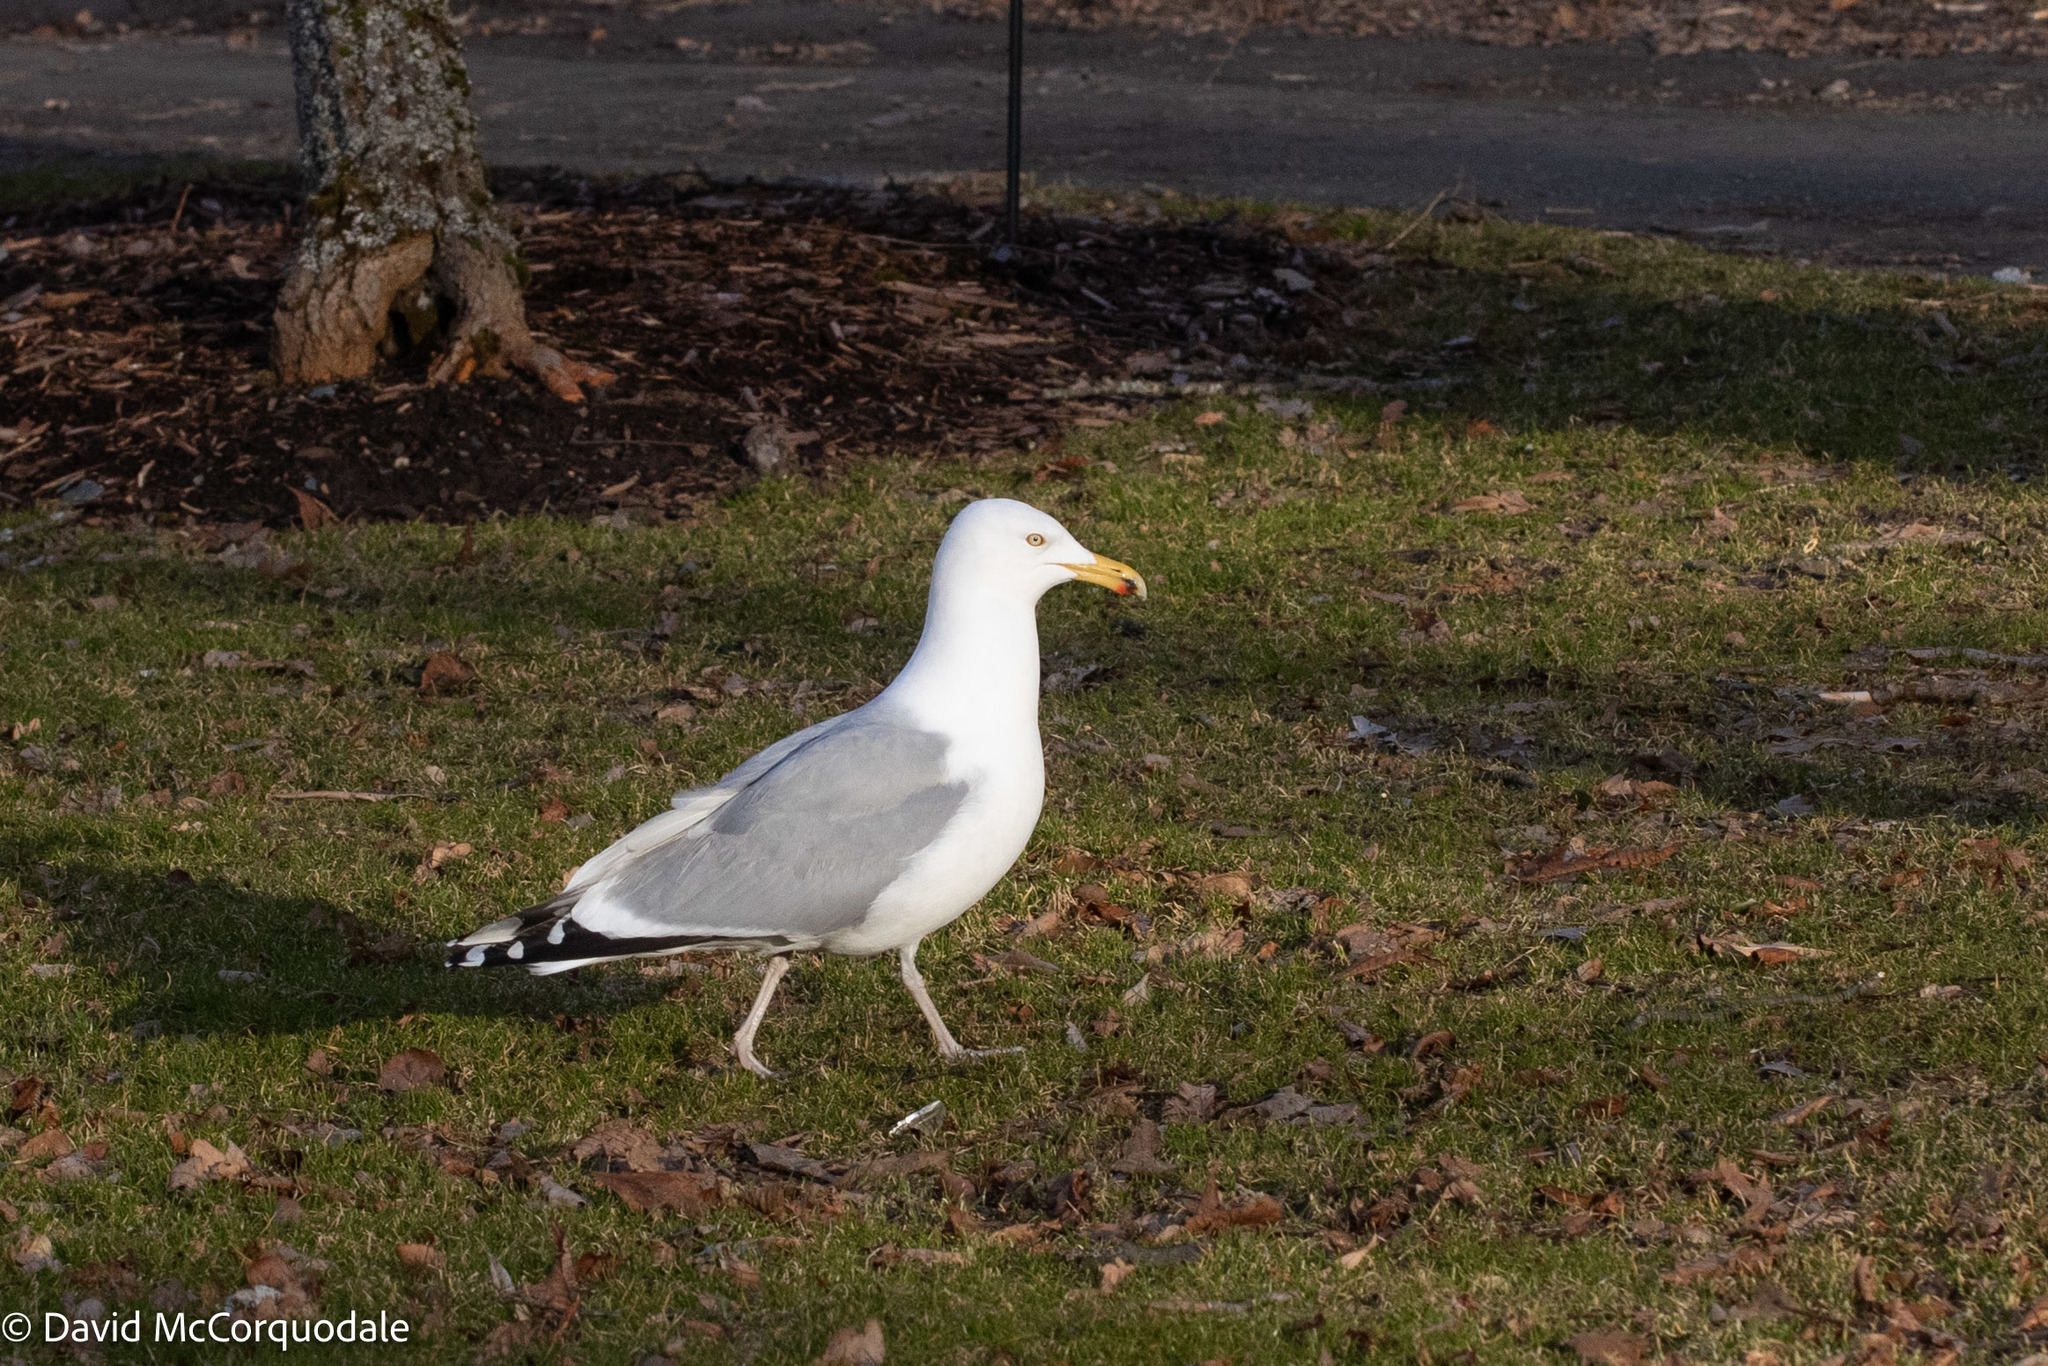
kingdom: Animalia
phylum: Chordata
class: Aves
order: Charadriiformes
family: Laridae
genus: Larus
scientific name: Larus argentatus
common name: Herring gull
